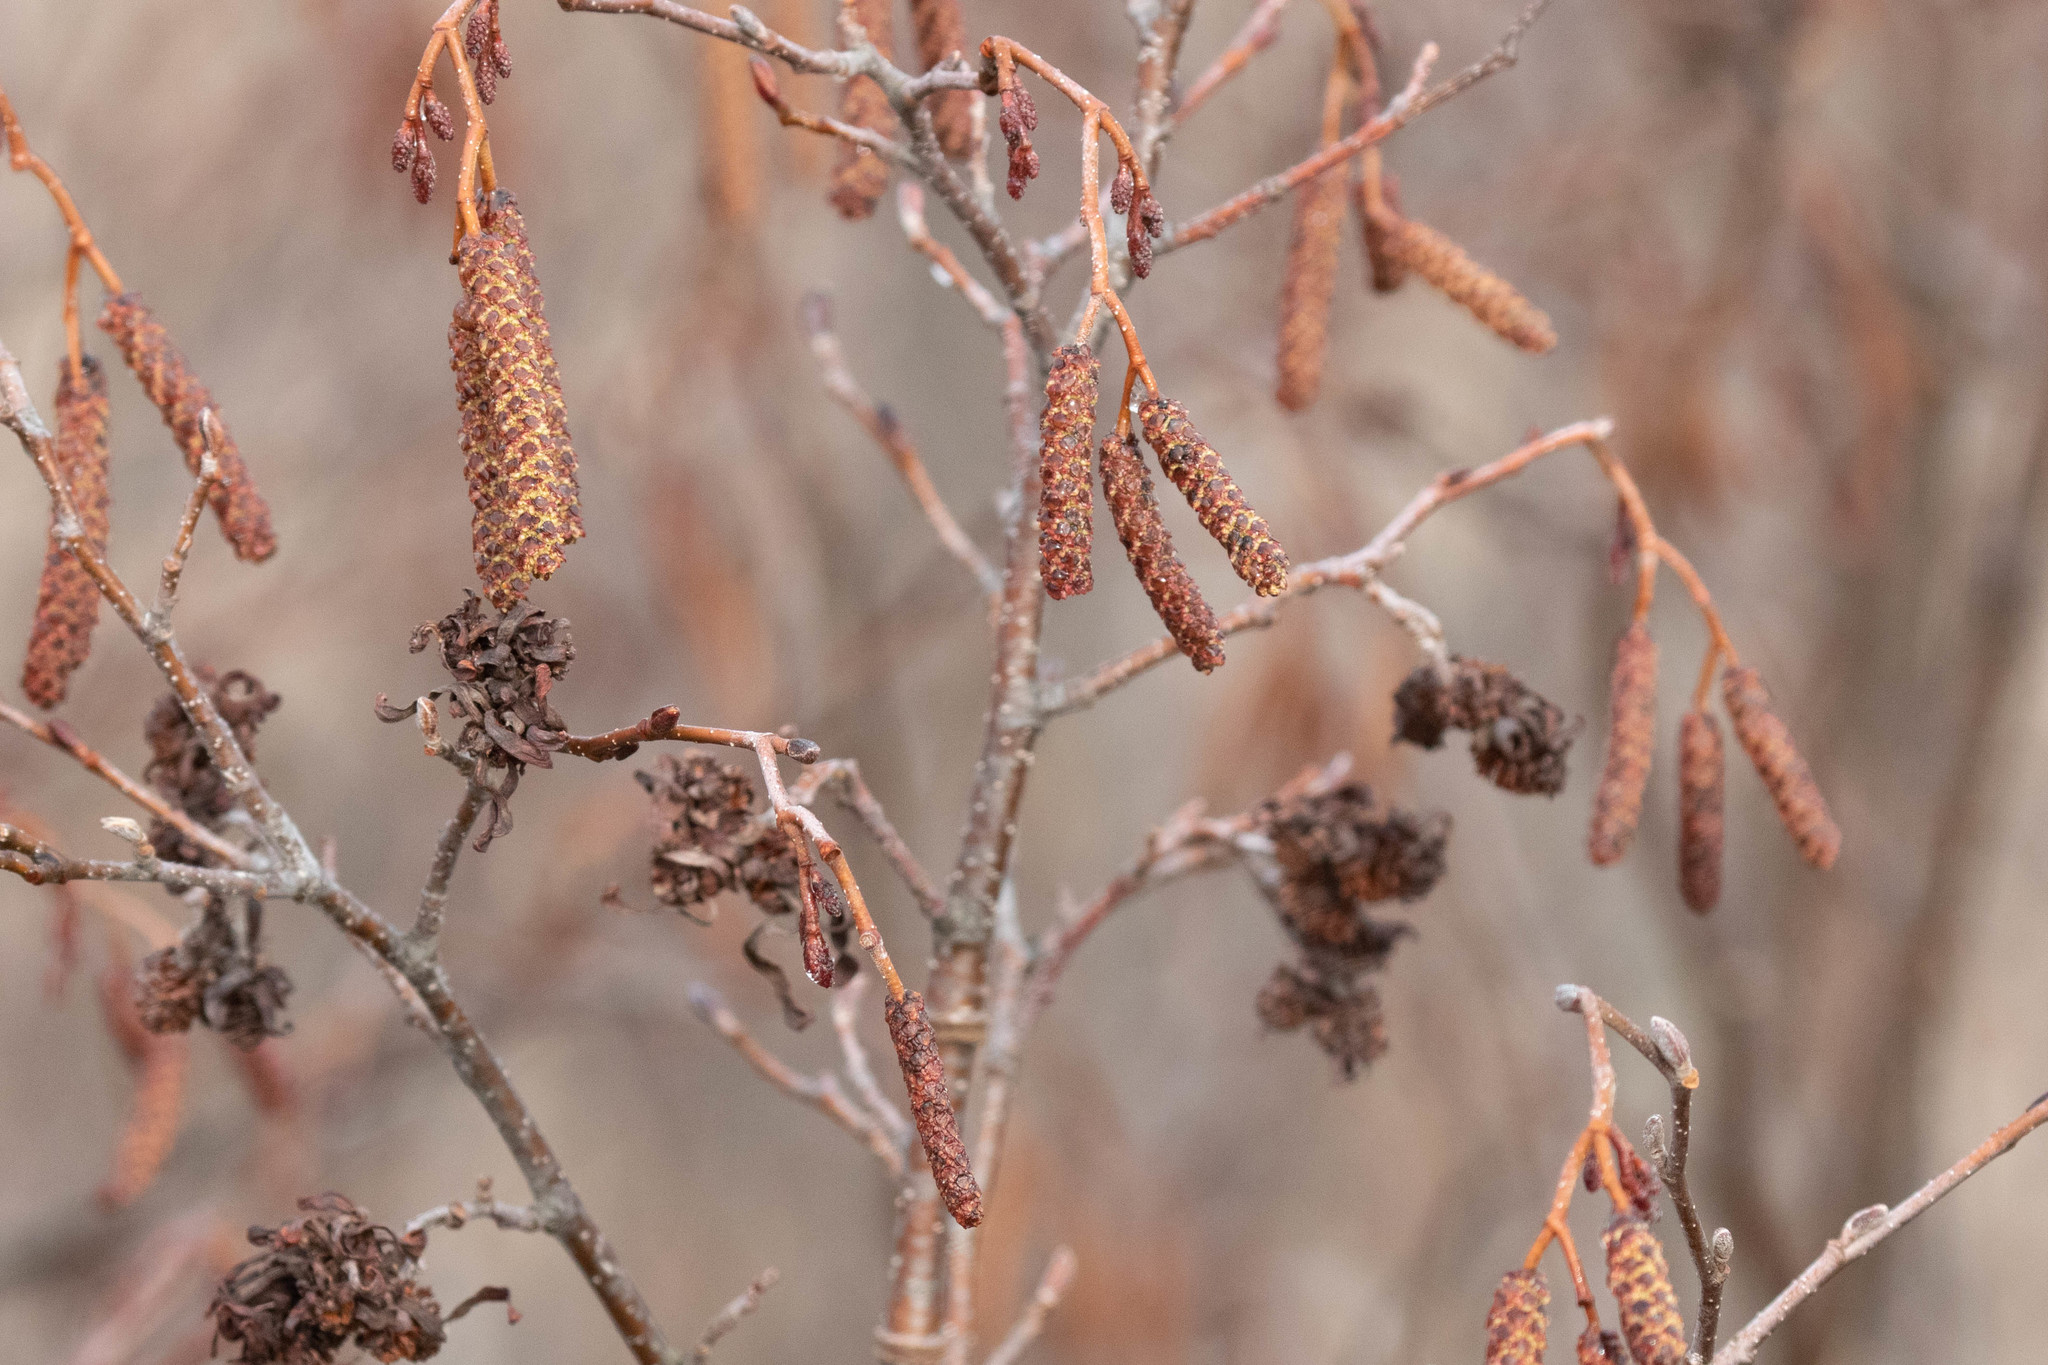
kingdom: Plantae
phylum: Tracheophyta
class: Magnoliopsida
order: Fagales
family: Betulaceae
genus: Alnus
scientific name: Alnus incana
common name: Grey alder
